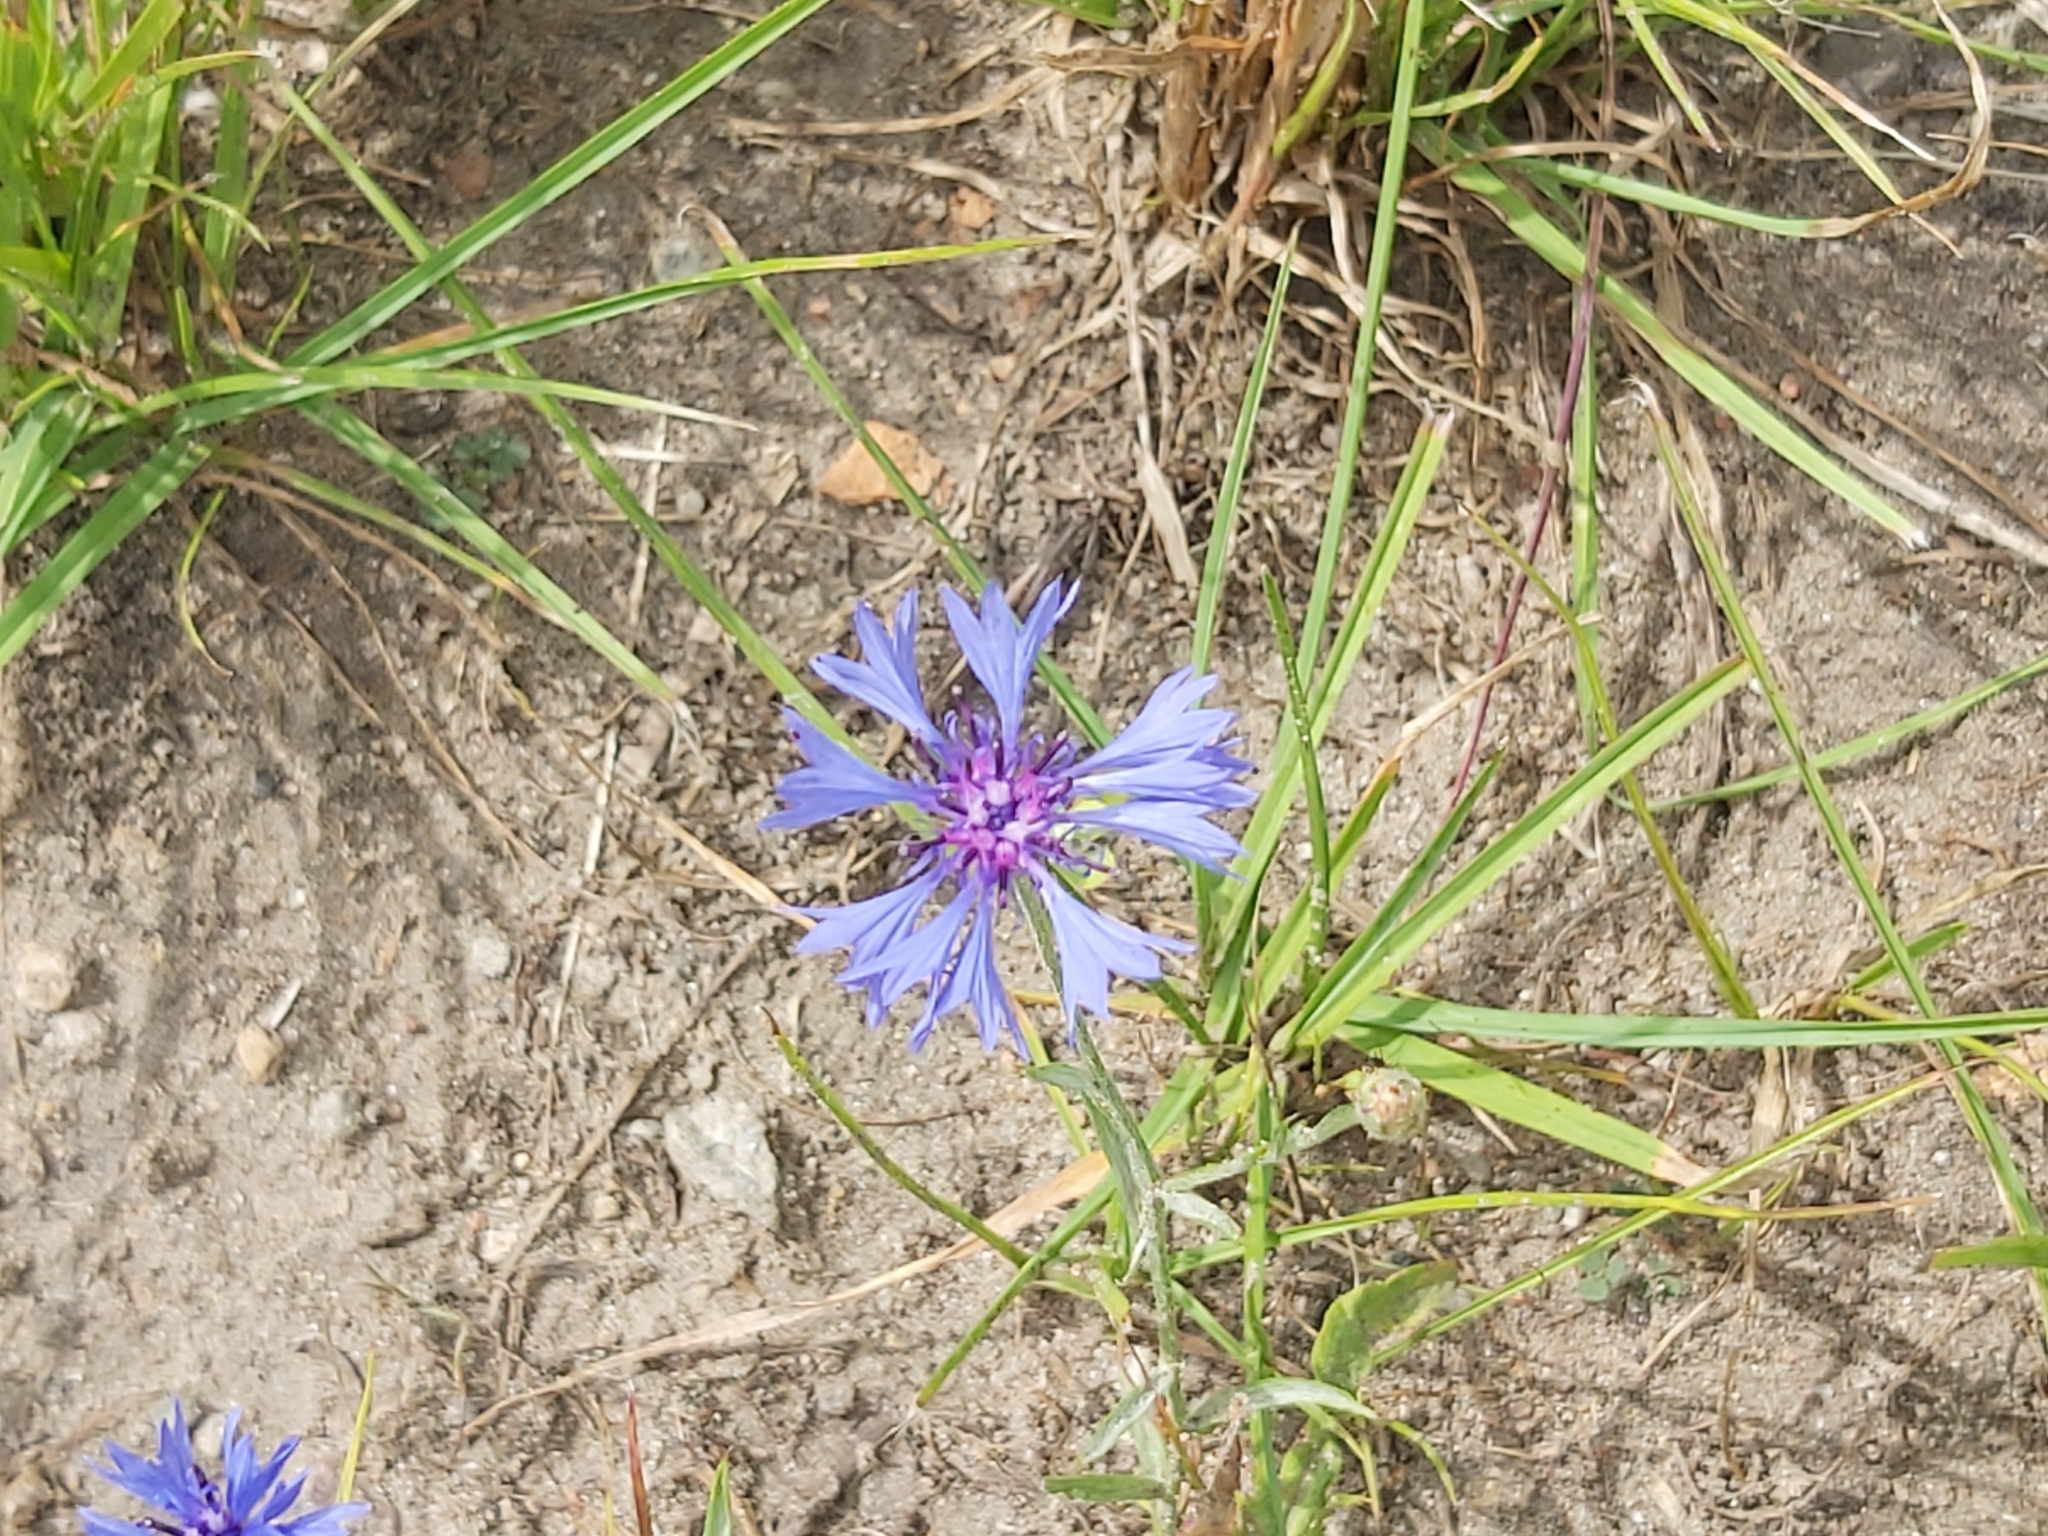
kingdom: Plantae
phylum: Tracheophyta
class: Magnoliopsida
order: Asterales
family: Asteraceae
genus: Centaurea
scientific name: Centaurea cyanus
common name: Cornflower
